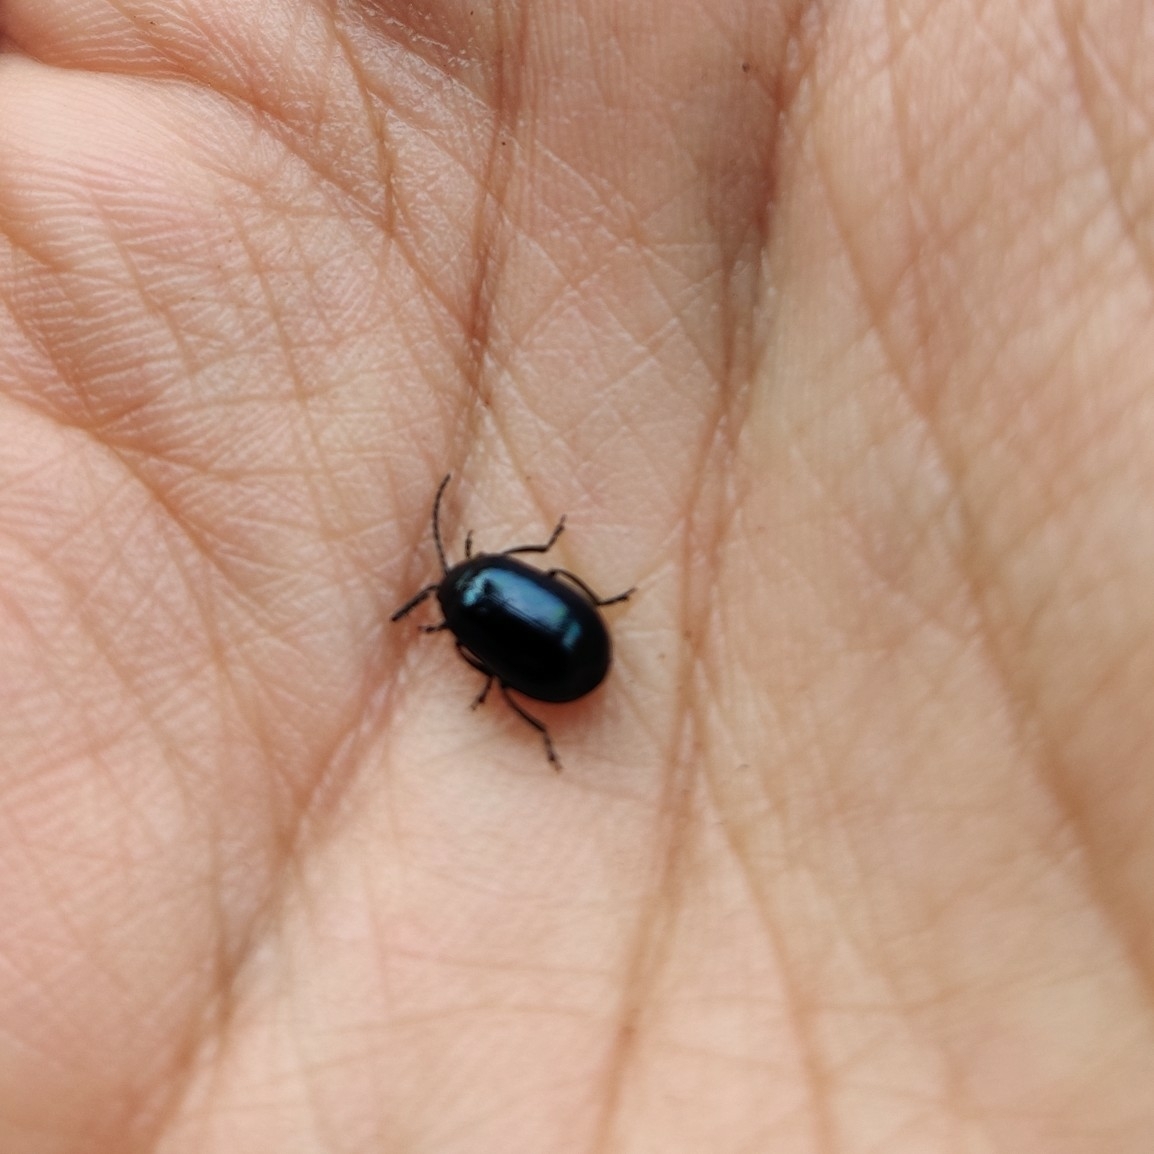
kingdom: Animalia
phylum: Arthropoda
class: Insecta
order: Coleoptera
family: Chrysomelidae
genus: Agelastica
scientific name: Agelastica alni
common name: Alder leaf beetle
